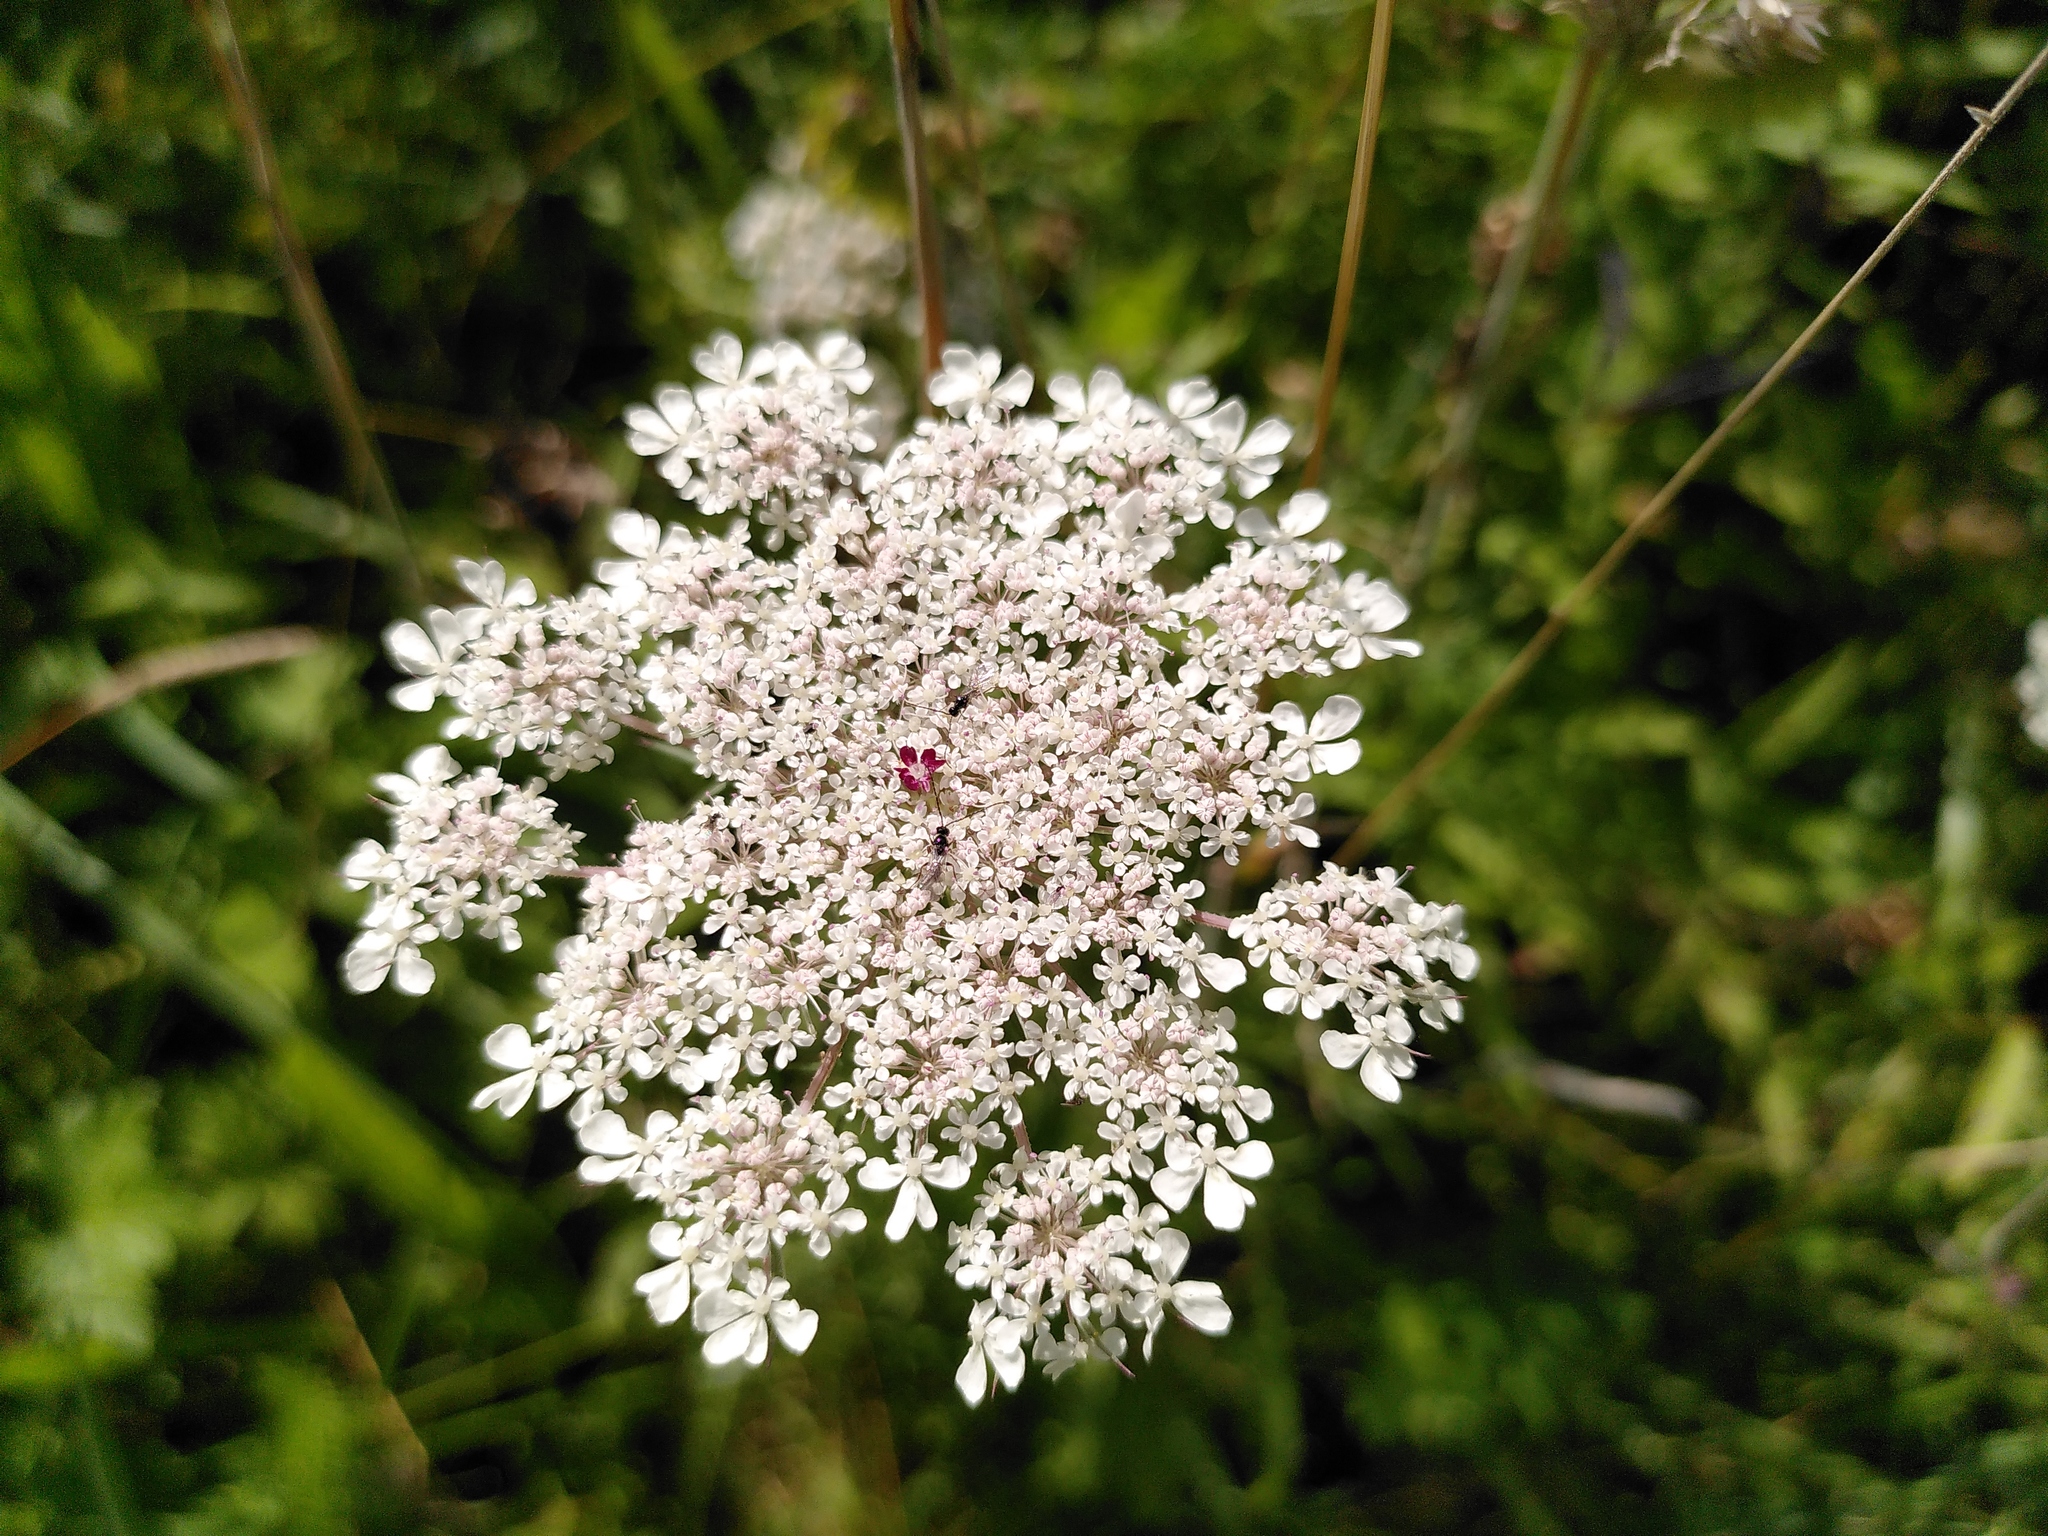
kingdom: Plantae
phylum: Tracheophyta
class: Magnoliopsida
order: Apiales
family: Apiaceae
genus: Daucus
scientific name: Daucus carota
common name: Wild carrot
